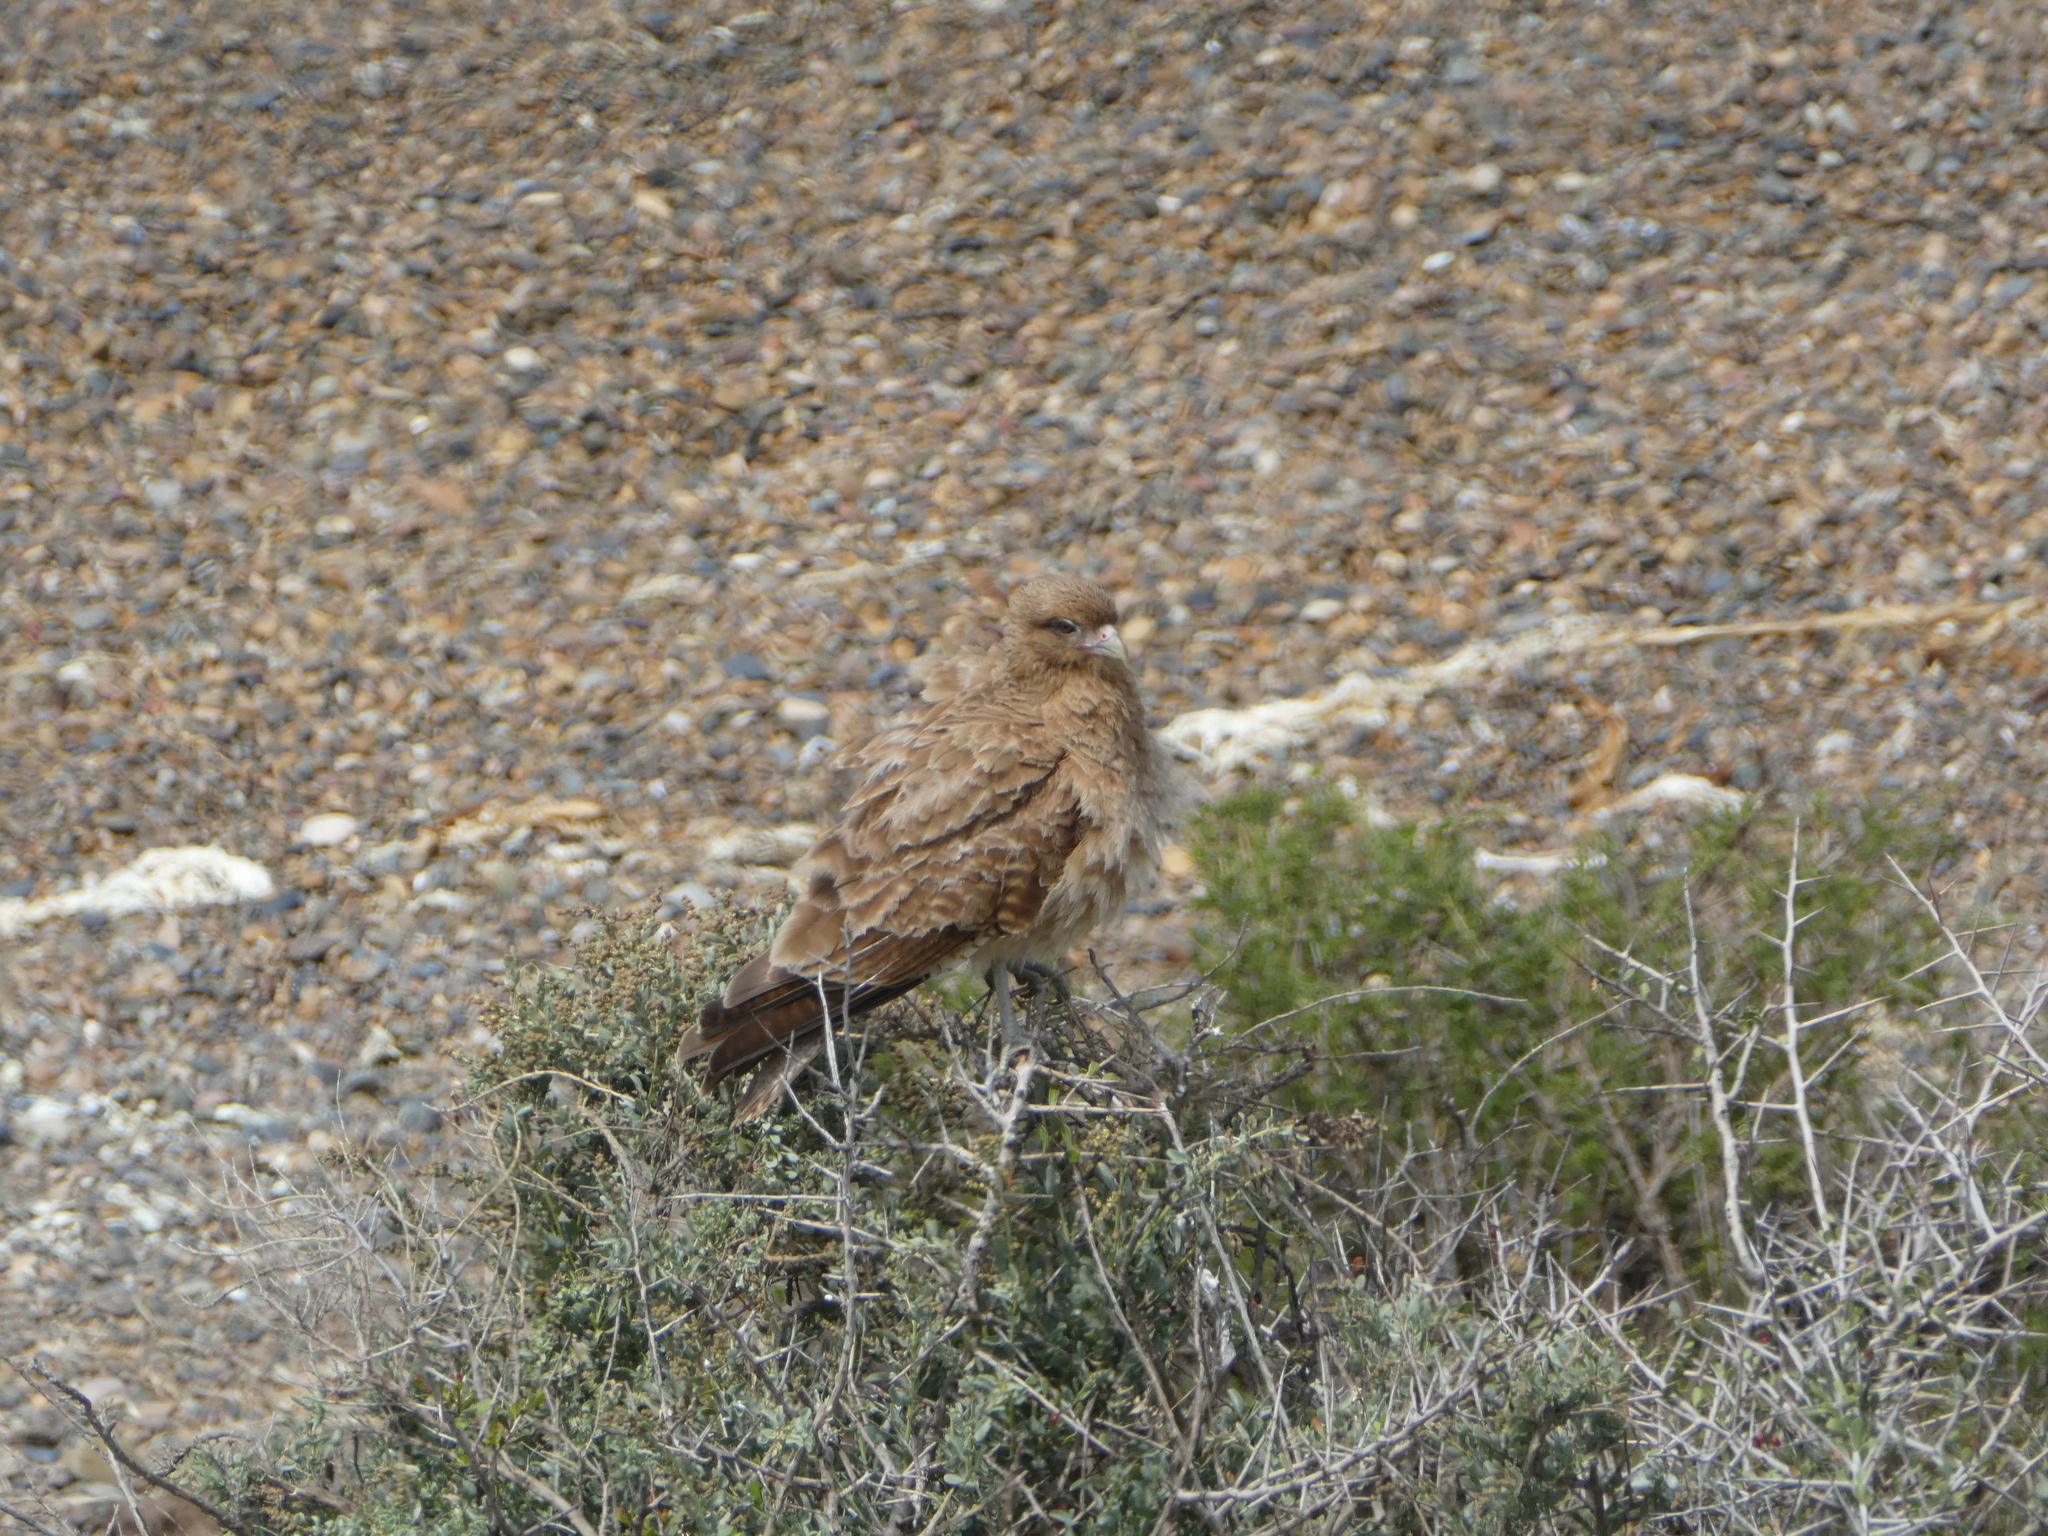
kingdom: Animalia
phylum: Chordata
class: Aves
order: Falconiformes
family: Falconidae
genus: Daptrius
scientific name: Daptrius
